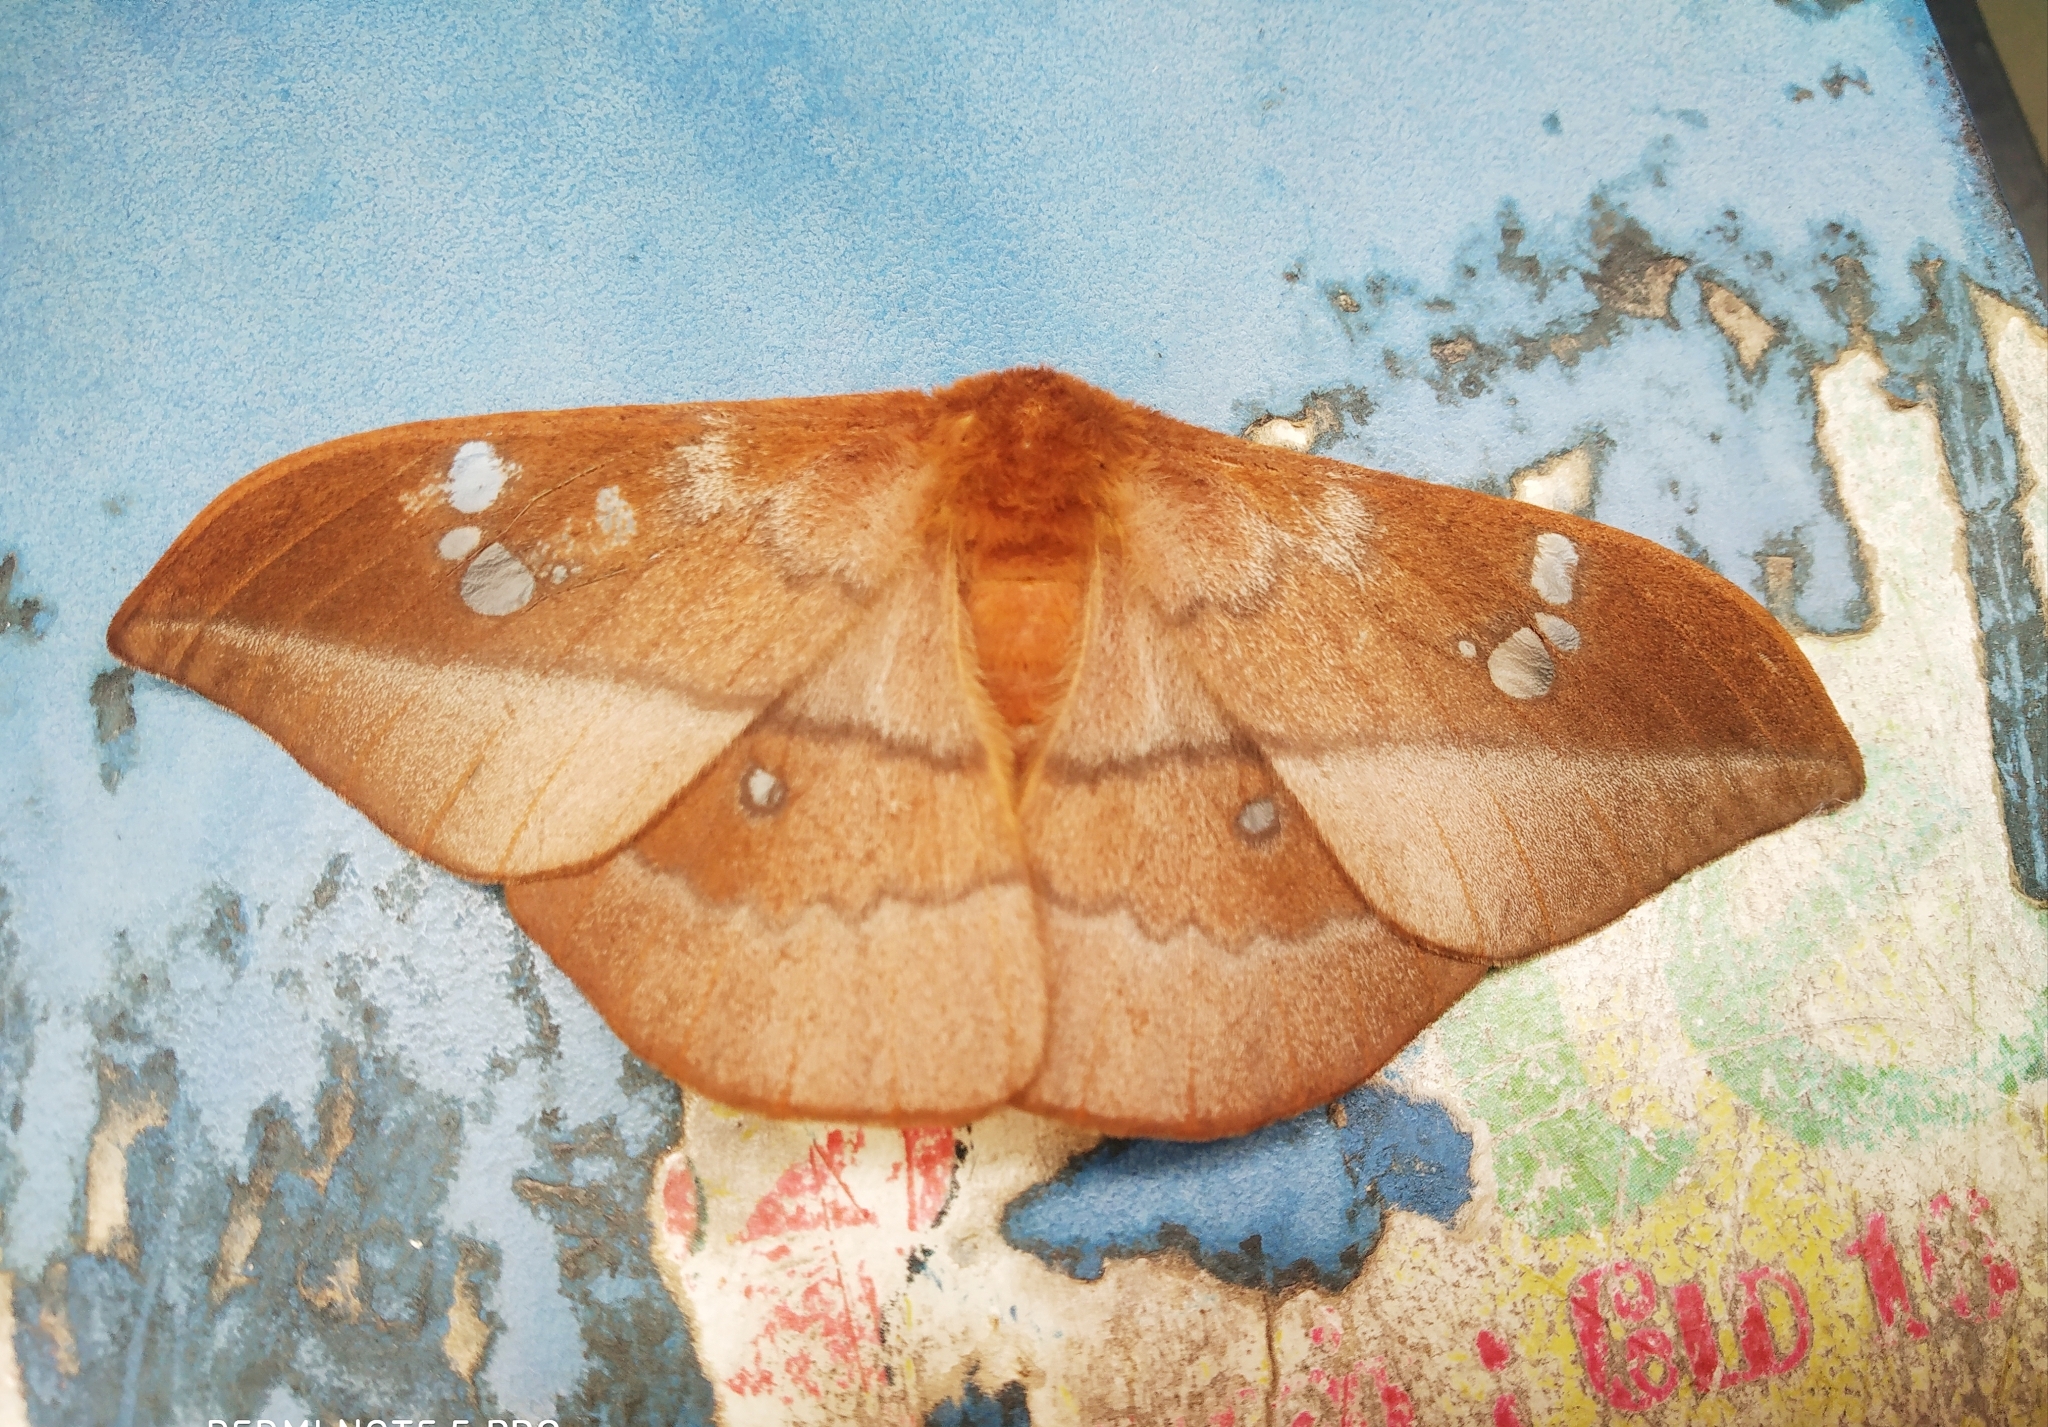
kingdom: Animalia
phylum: Arthropoda
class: Insecta
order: Lepidoptera
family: Saturniidae
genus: Cricula
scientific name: Cricula trifenestrata
